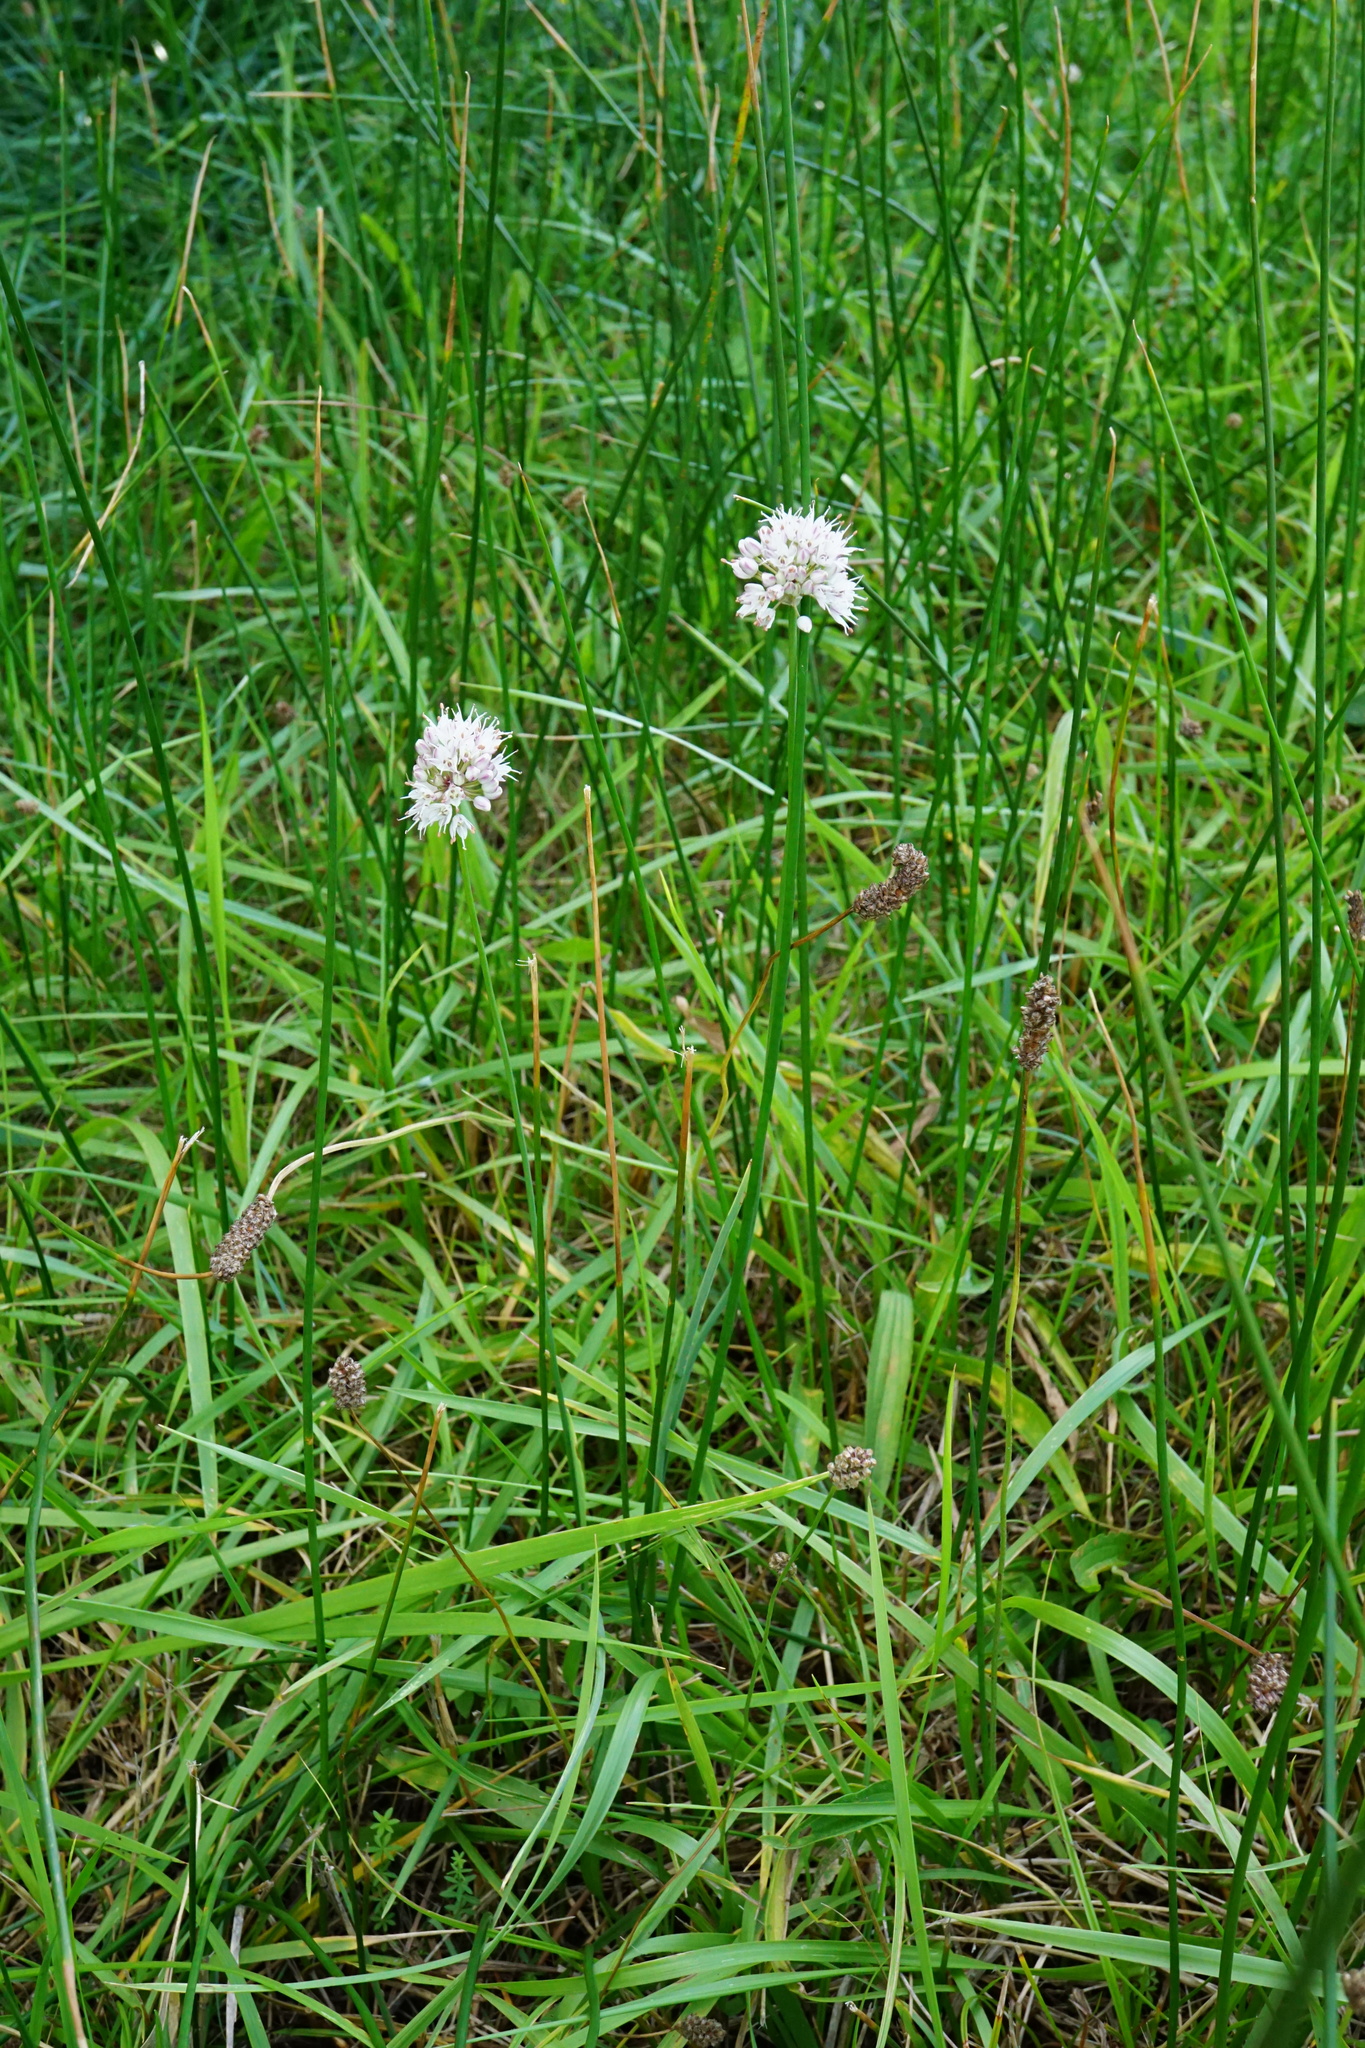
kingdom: Plantae
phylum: Tracheophyta
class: Liliopsida
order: Asparagales
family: Amaryllidaceae
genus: Allium
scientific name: Allium suaveolens
